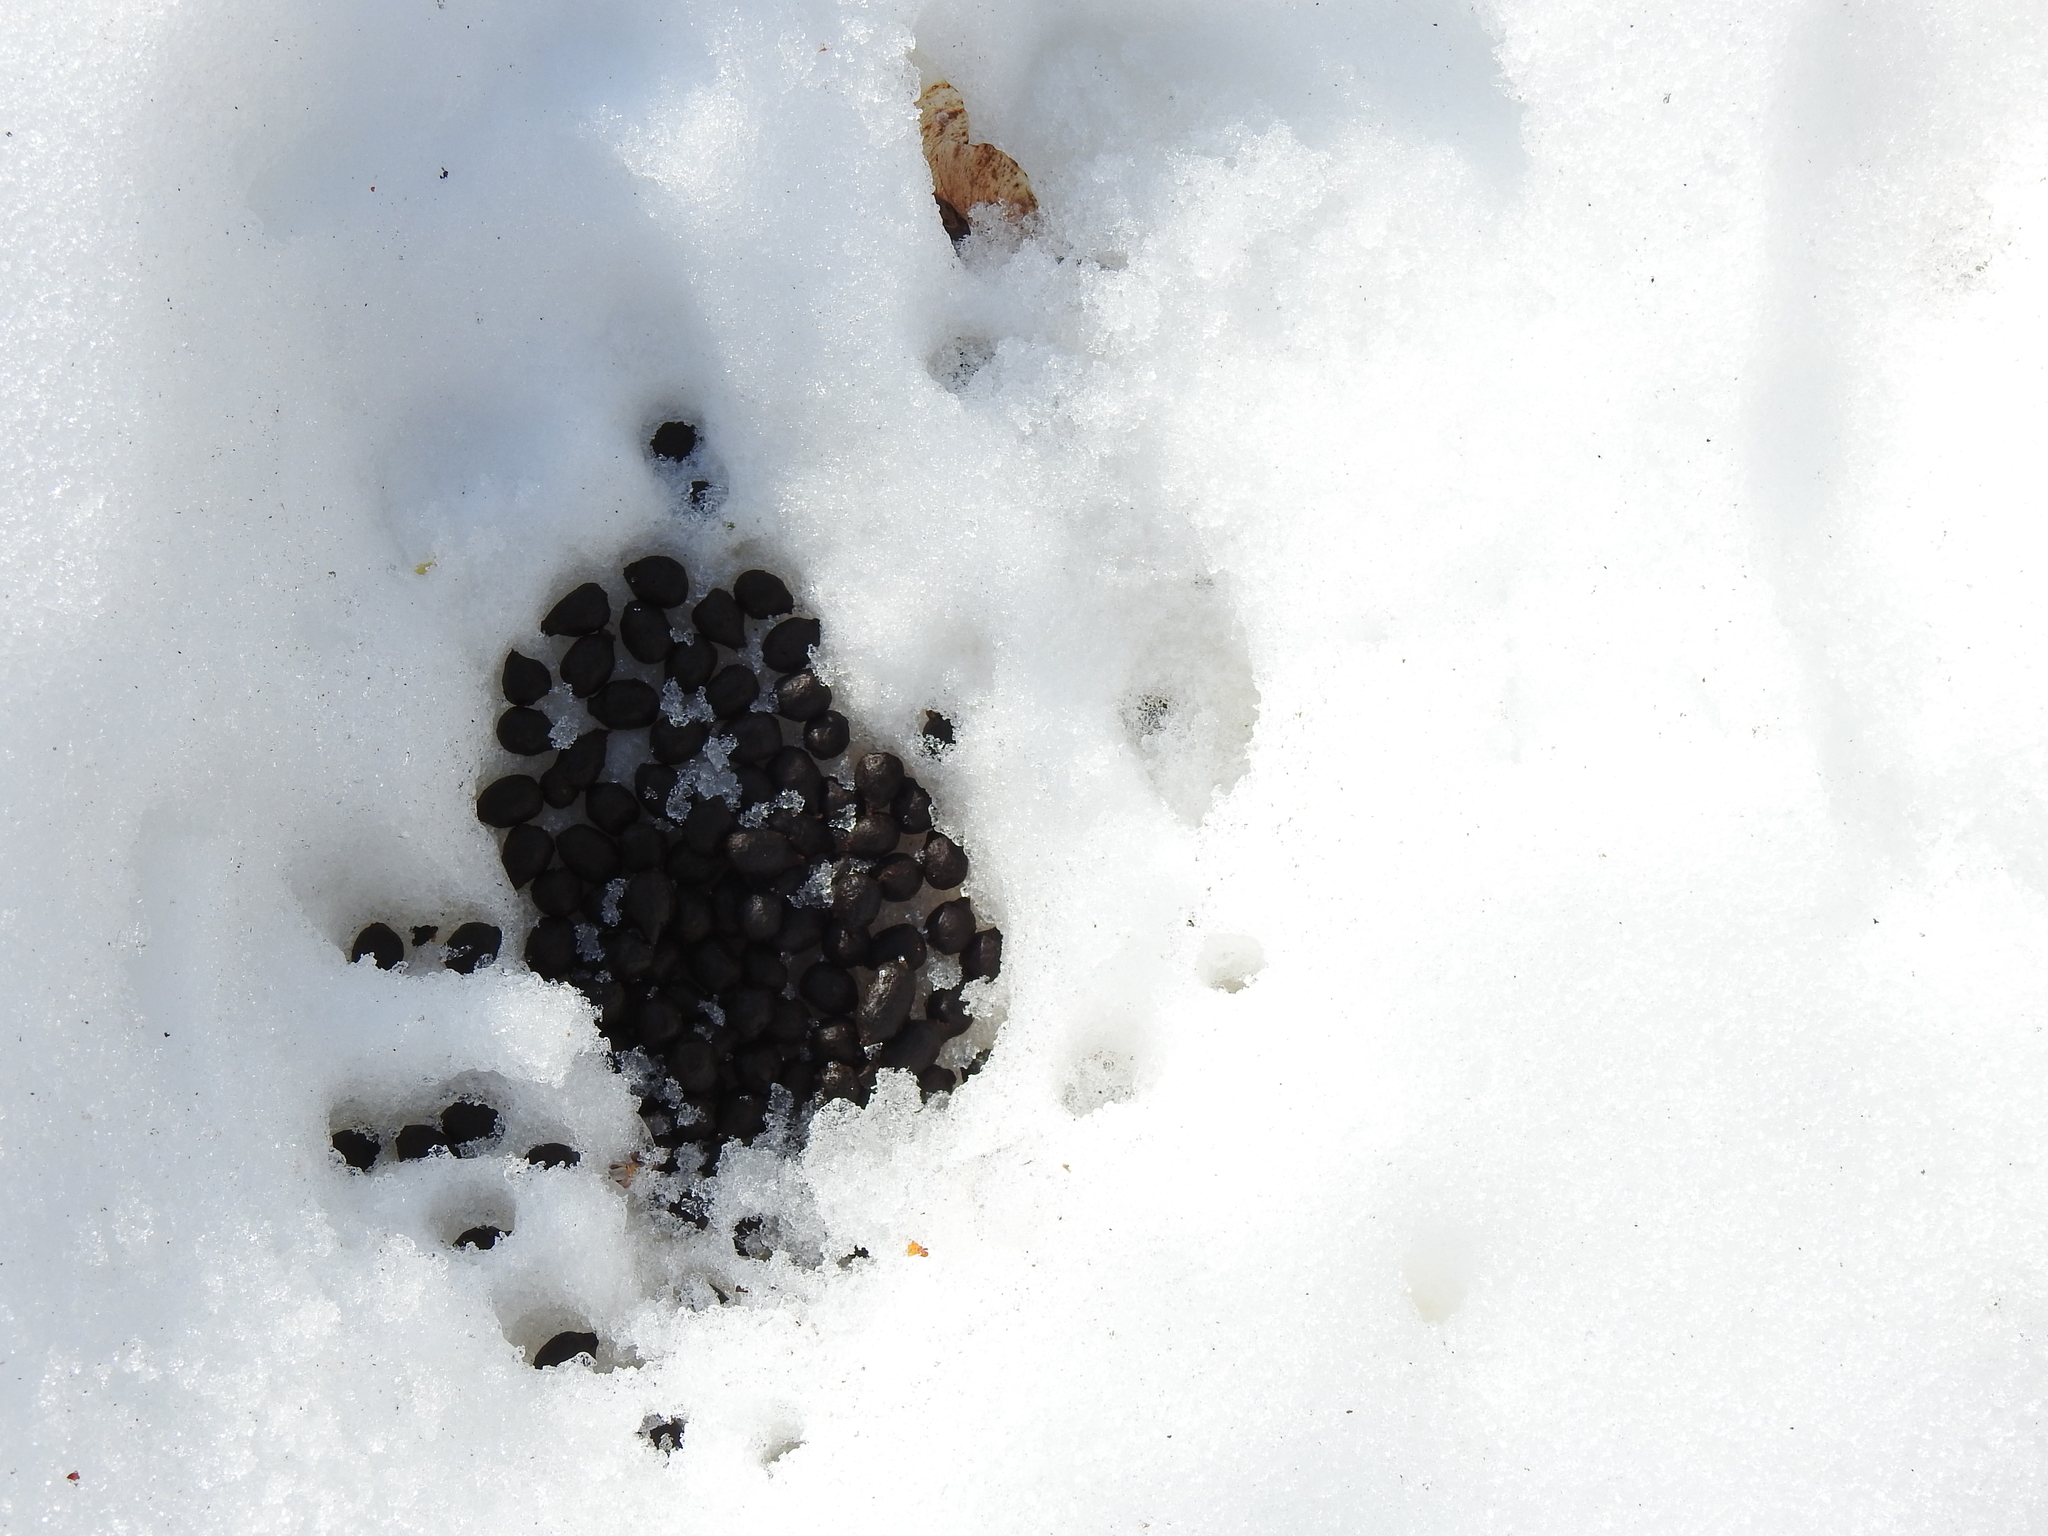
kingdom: Animalia
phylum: Chordata
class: Mammalia
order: Artiodactyla
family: Cervidae
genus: Odocoileus
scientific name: Odocoileus virginianus
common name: White-tailed deer
